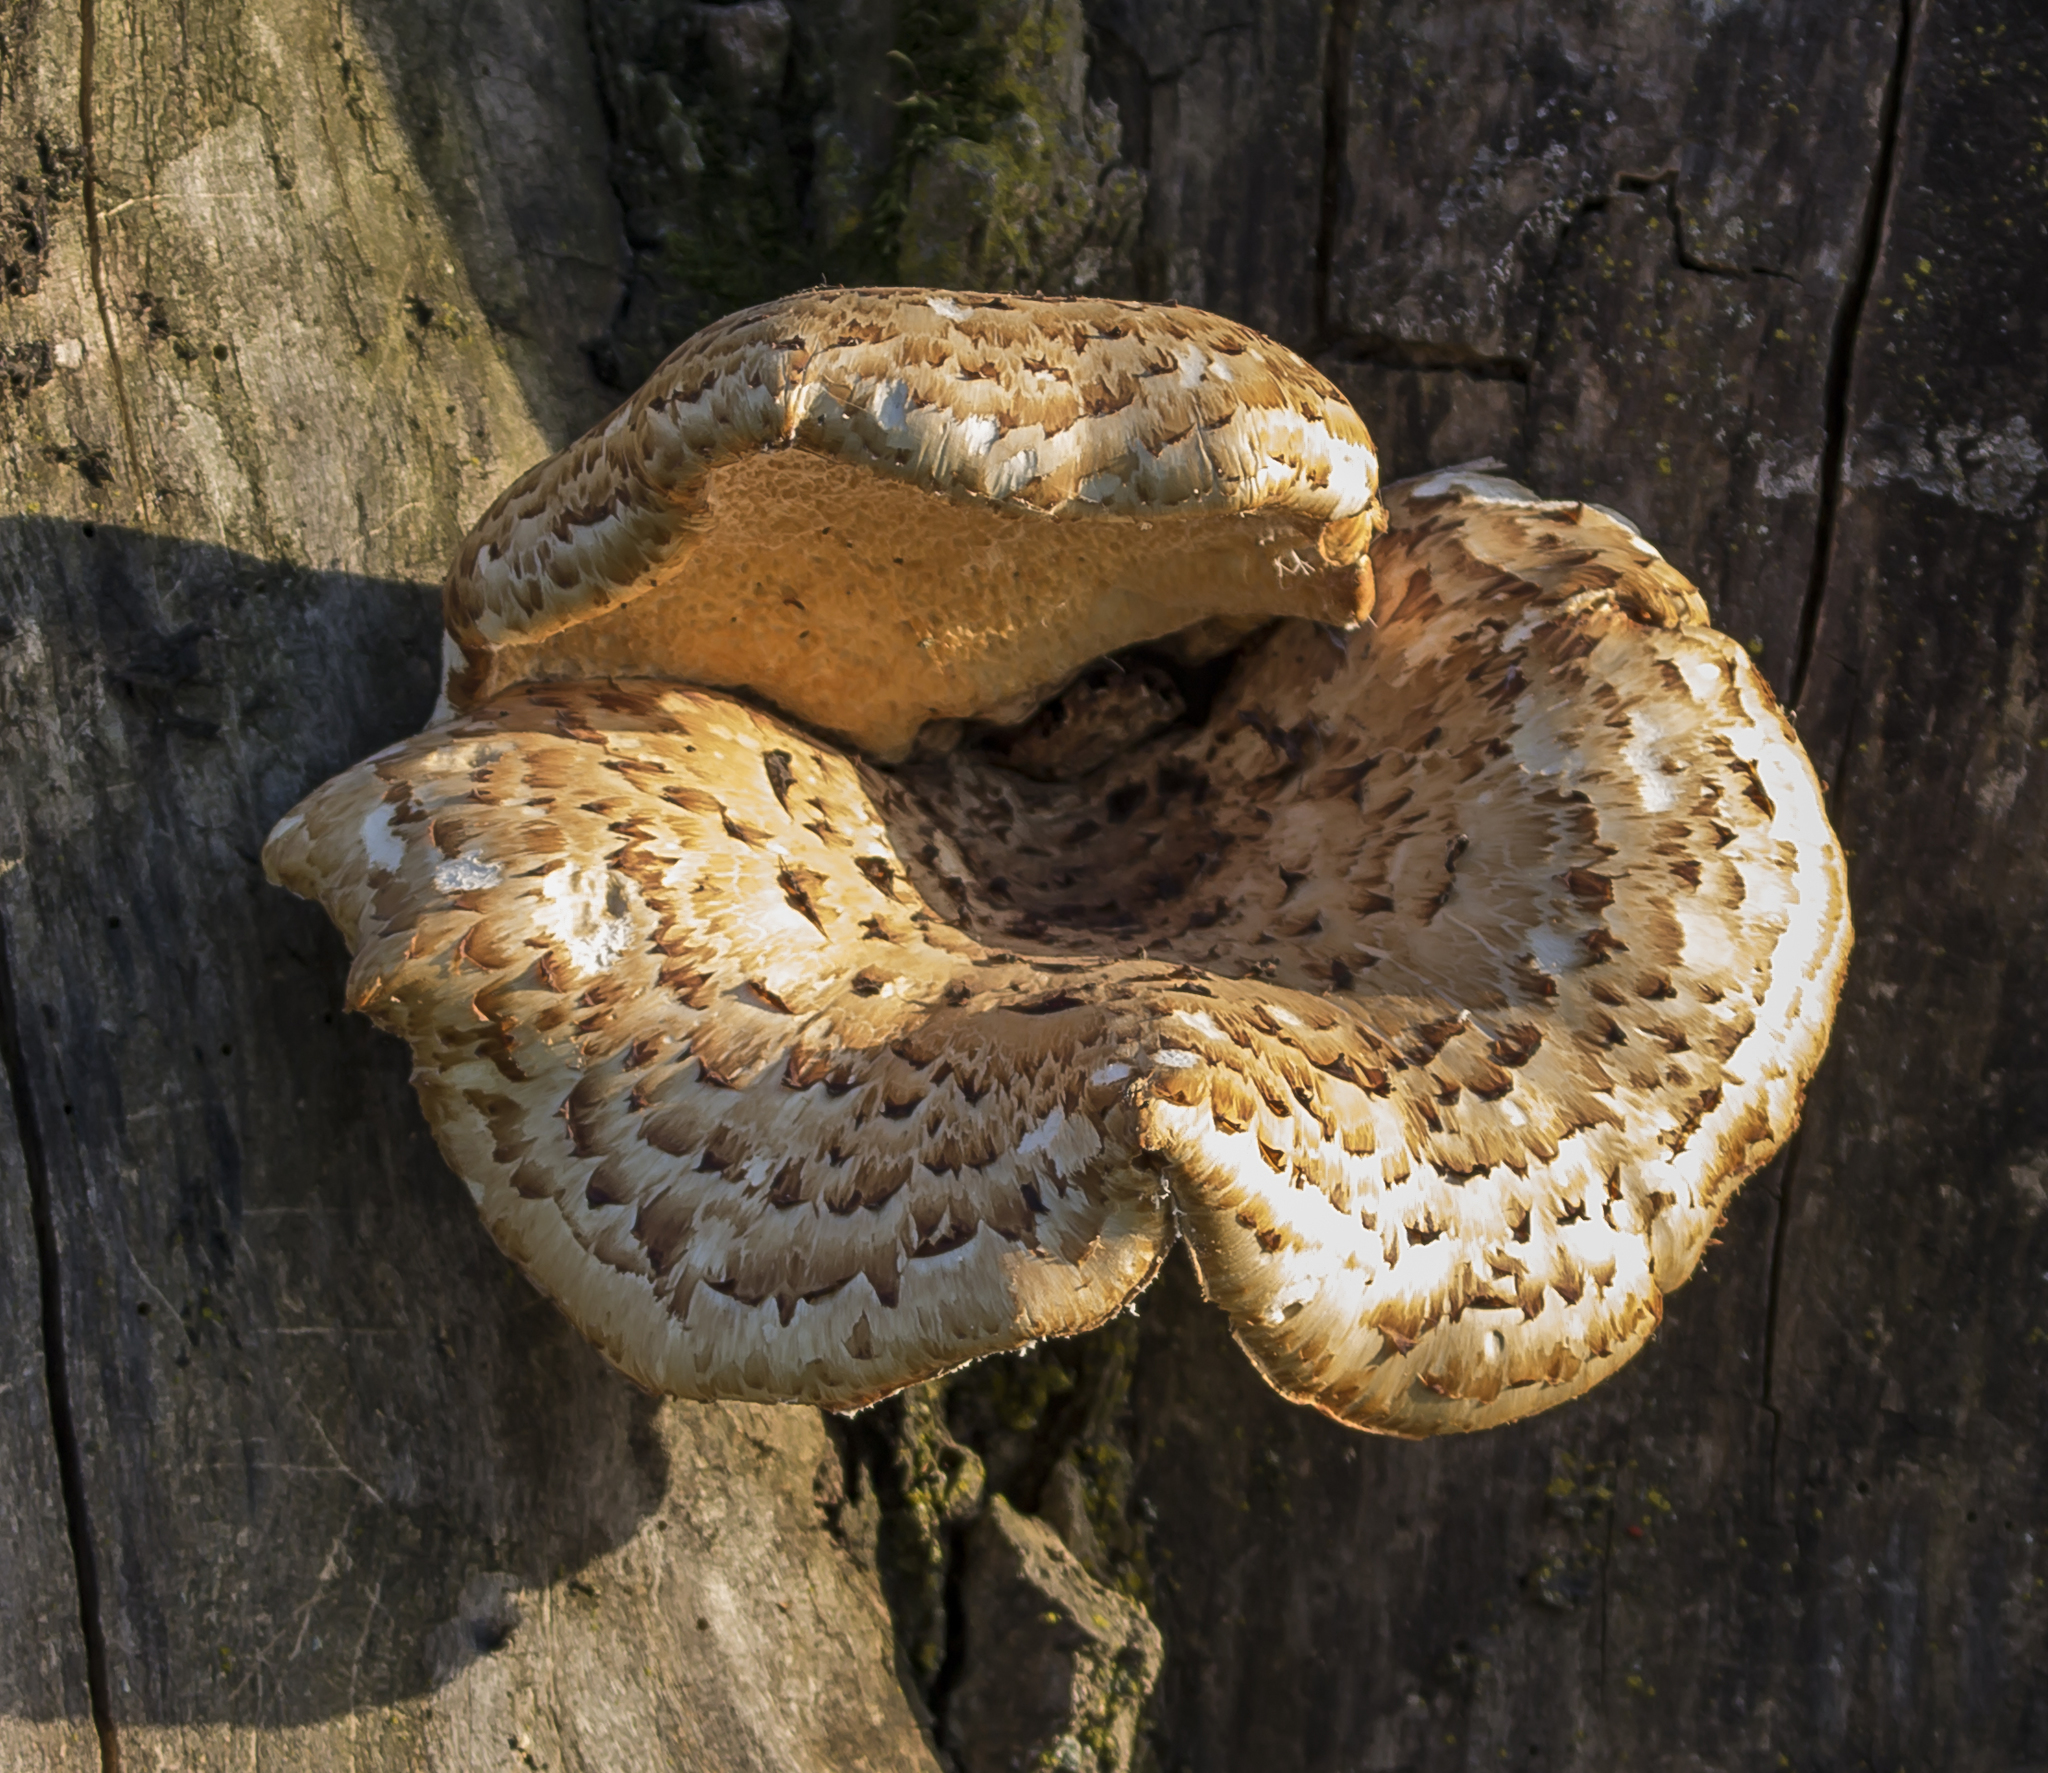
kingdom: Fungi
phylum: Basidiomycota
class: Agaricomycetes
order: Polyporales
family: Polyporaceae
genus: Cerioporus
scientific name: Cerioporus squamosus
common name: Dryad's saddle
